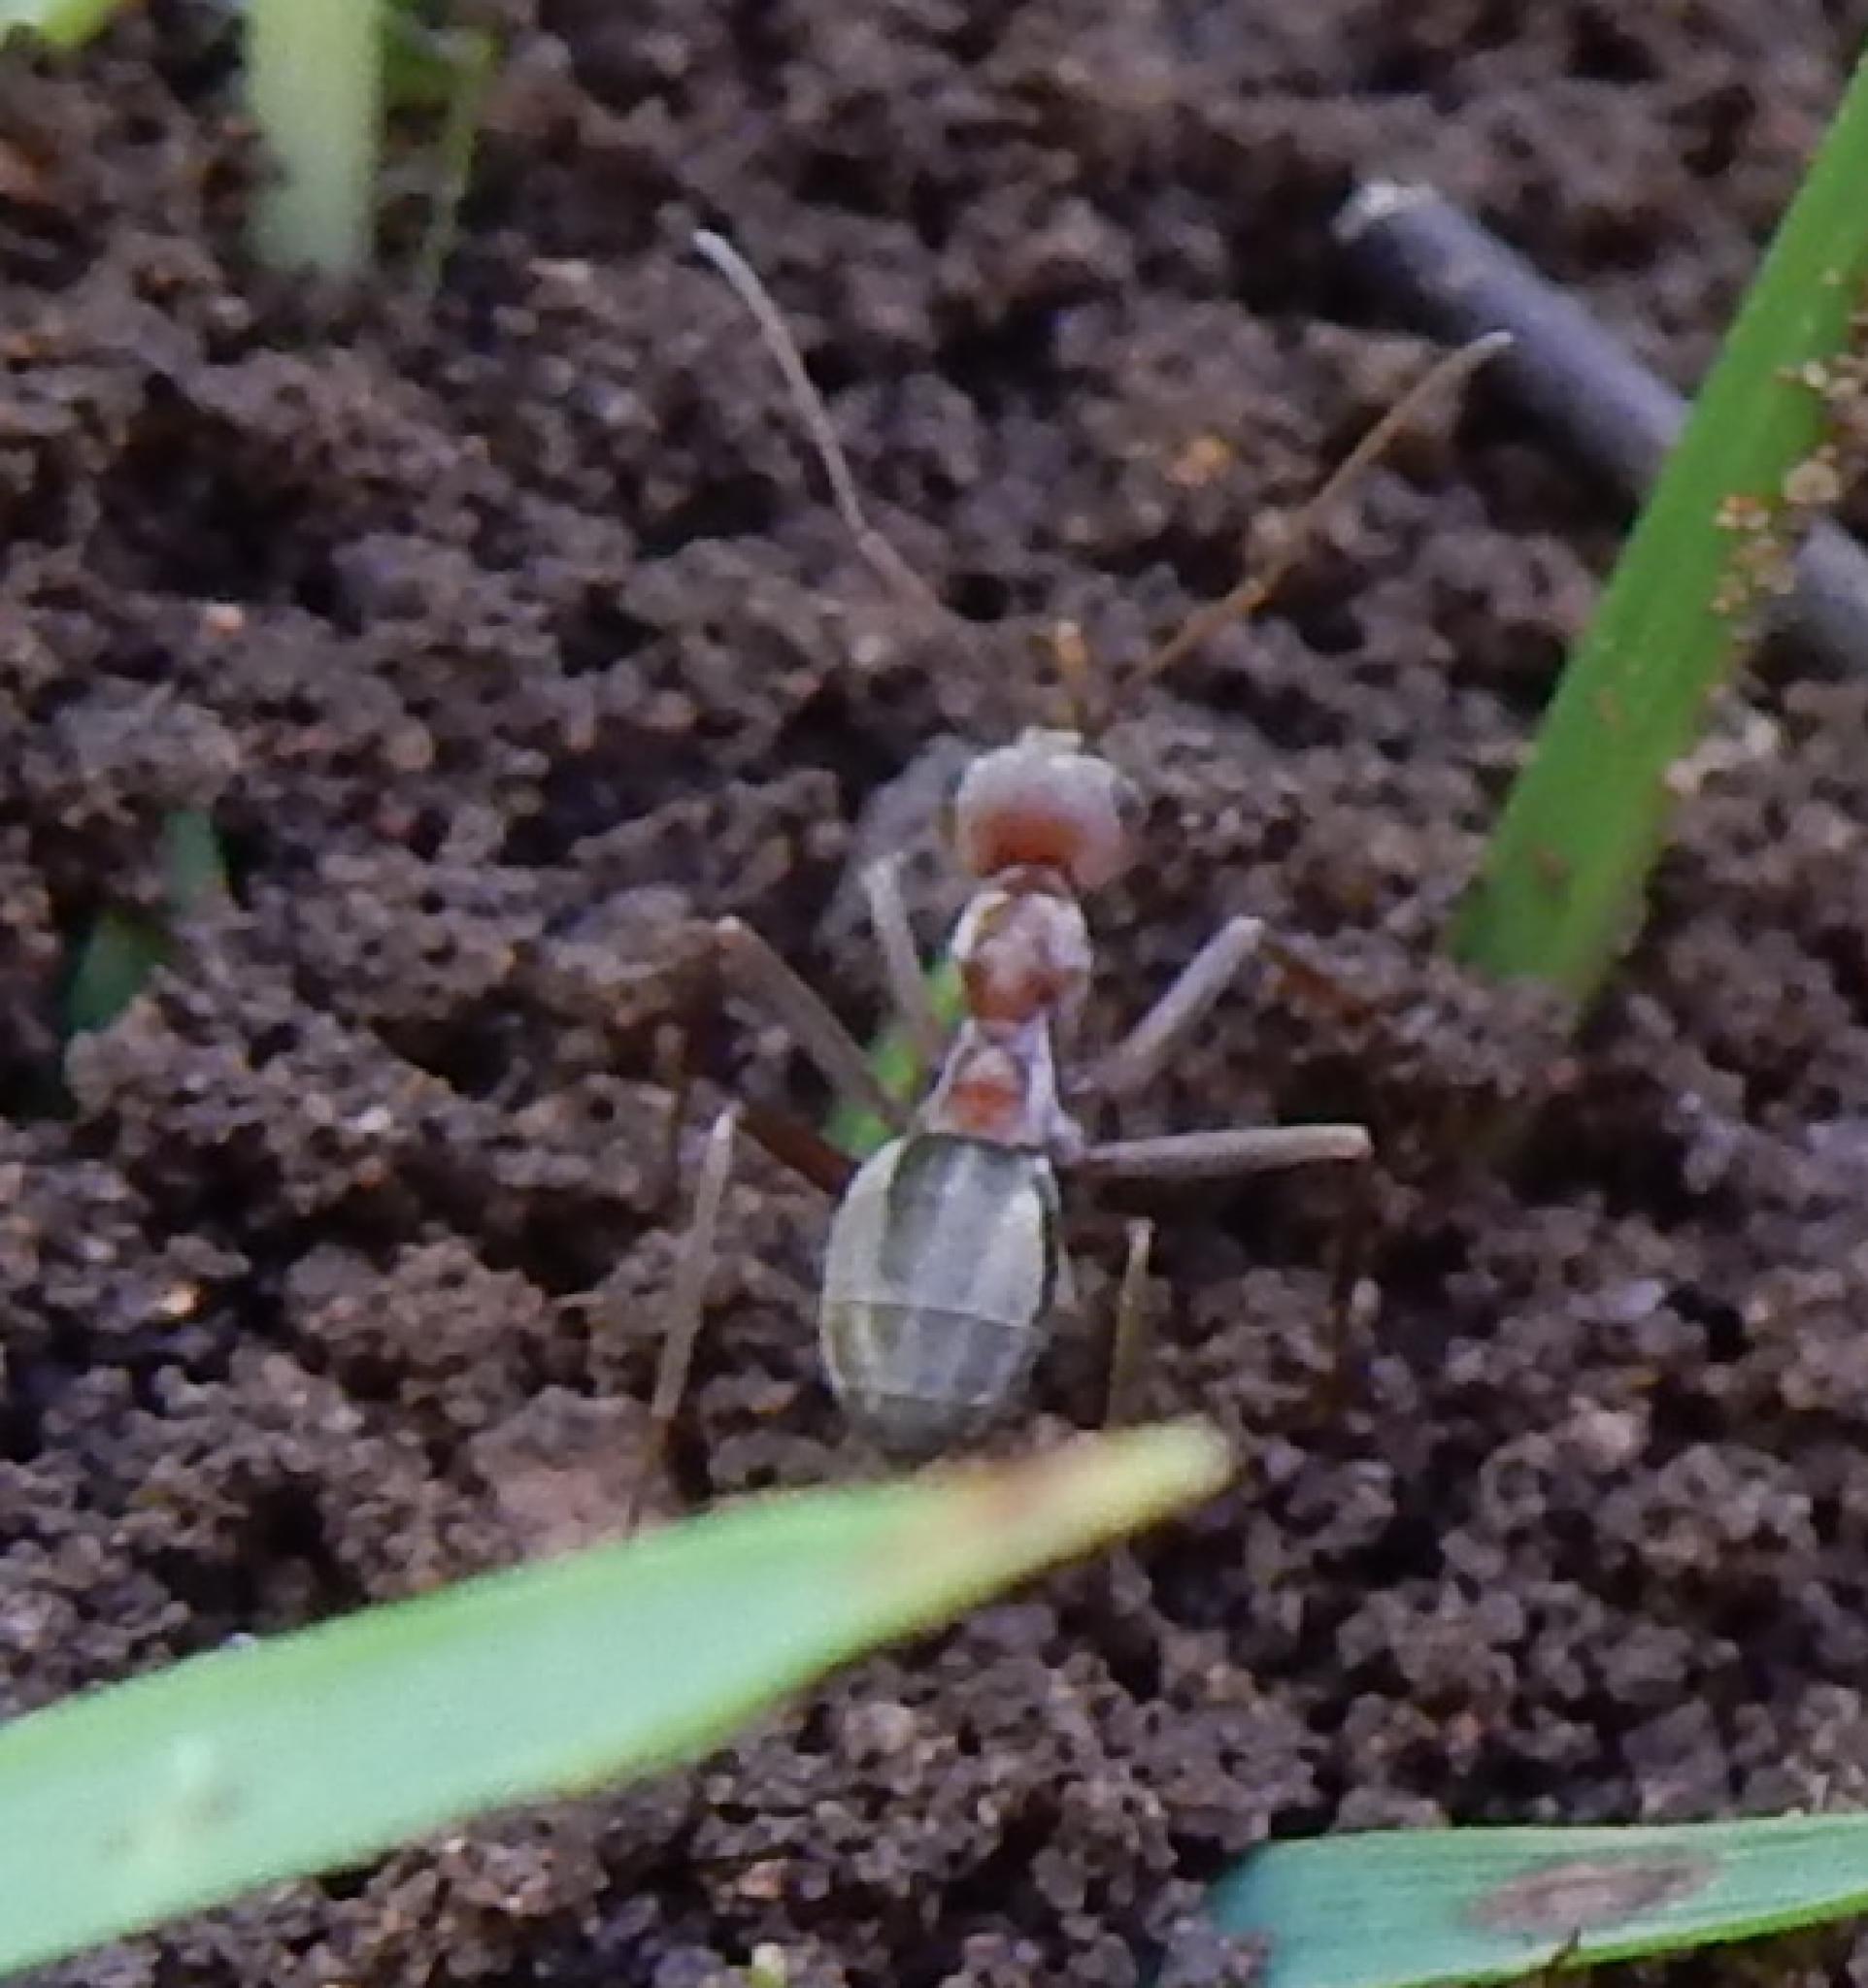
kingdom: Animalia
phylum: Arthropoda
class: Insecta
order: Hymenoptera
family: Formicidae
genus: Anoplolepis
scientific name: Anoplolepis custodiens
